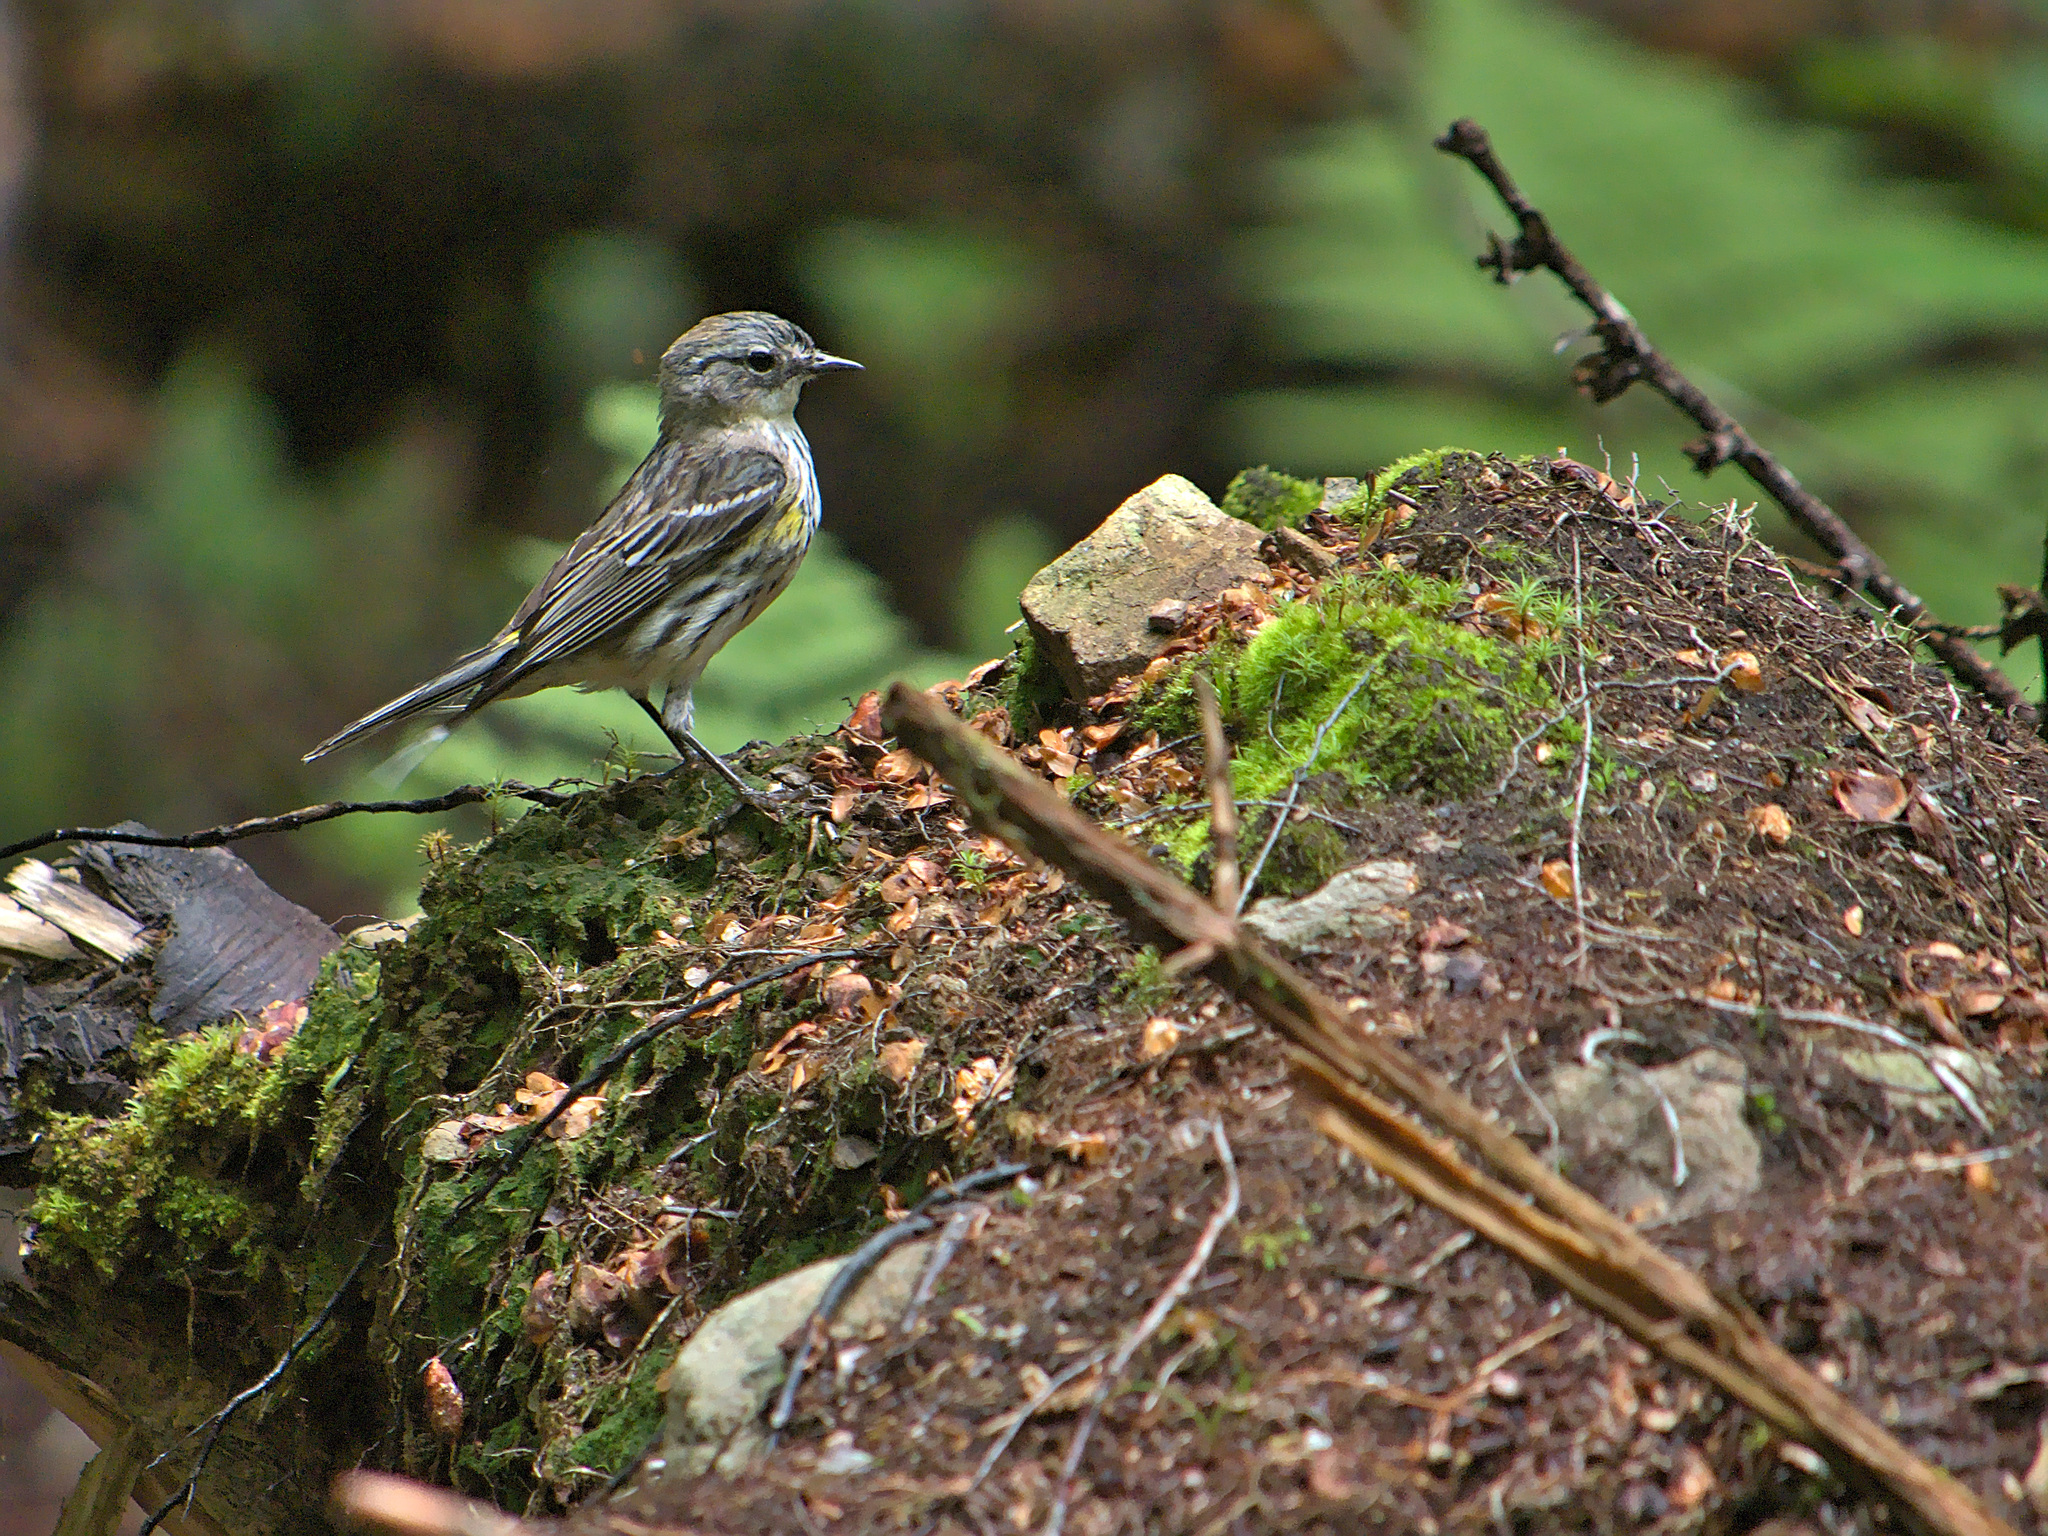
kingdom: Animalia
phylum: Chordata
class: Aves
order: Passeriformes
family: Parulidae
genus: Setophaga
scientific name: Setophaga coronata
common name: Myrtle warbler
